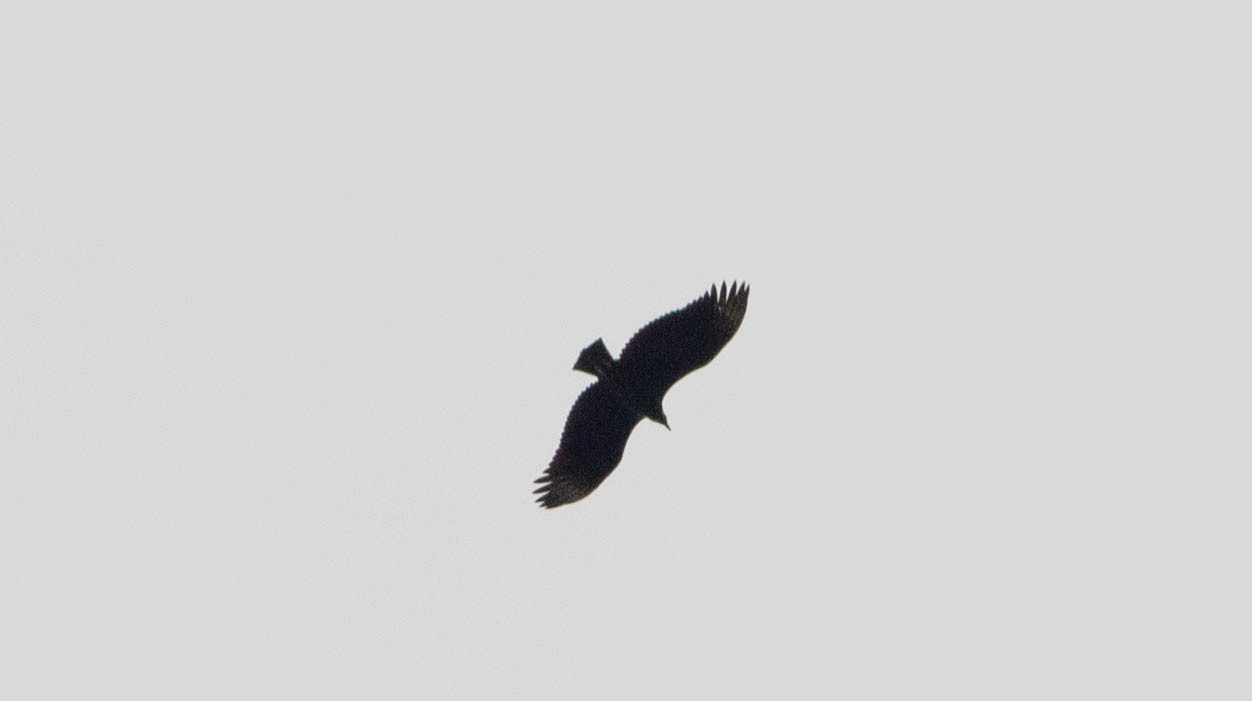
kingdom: Animalia
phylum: Chordata
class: Aves
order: Accipitriformes
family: Cathartidae
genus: Coragyps
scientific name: Coragyps atratus
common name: Black vulture
